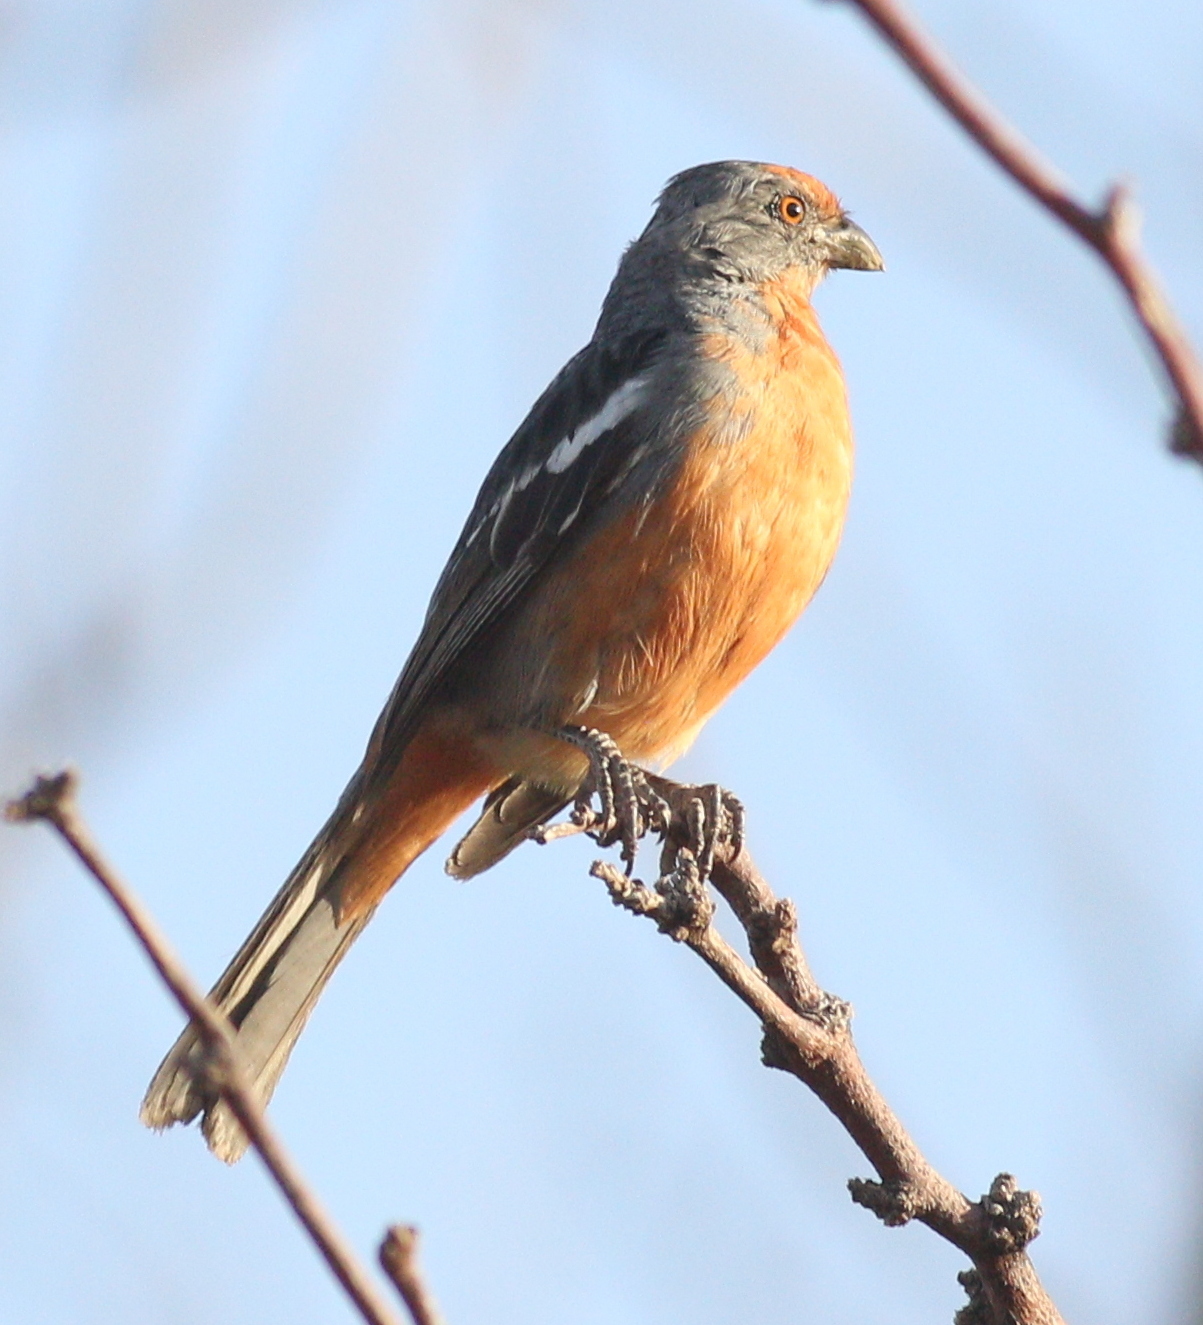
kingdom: Animalia
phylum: Chordata
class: Aves
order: Passeriformes
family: Cotingidae
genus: Phytotoma
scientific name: Phytotoma rutila
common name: White-tipped plantcutter
